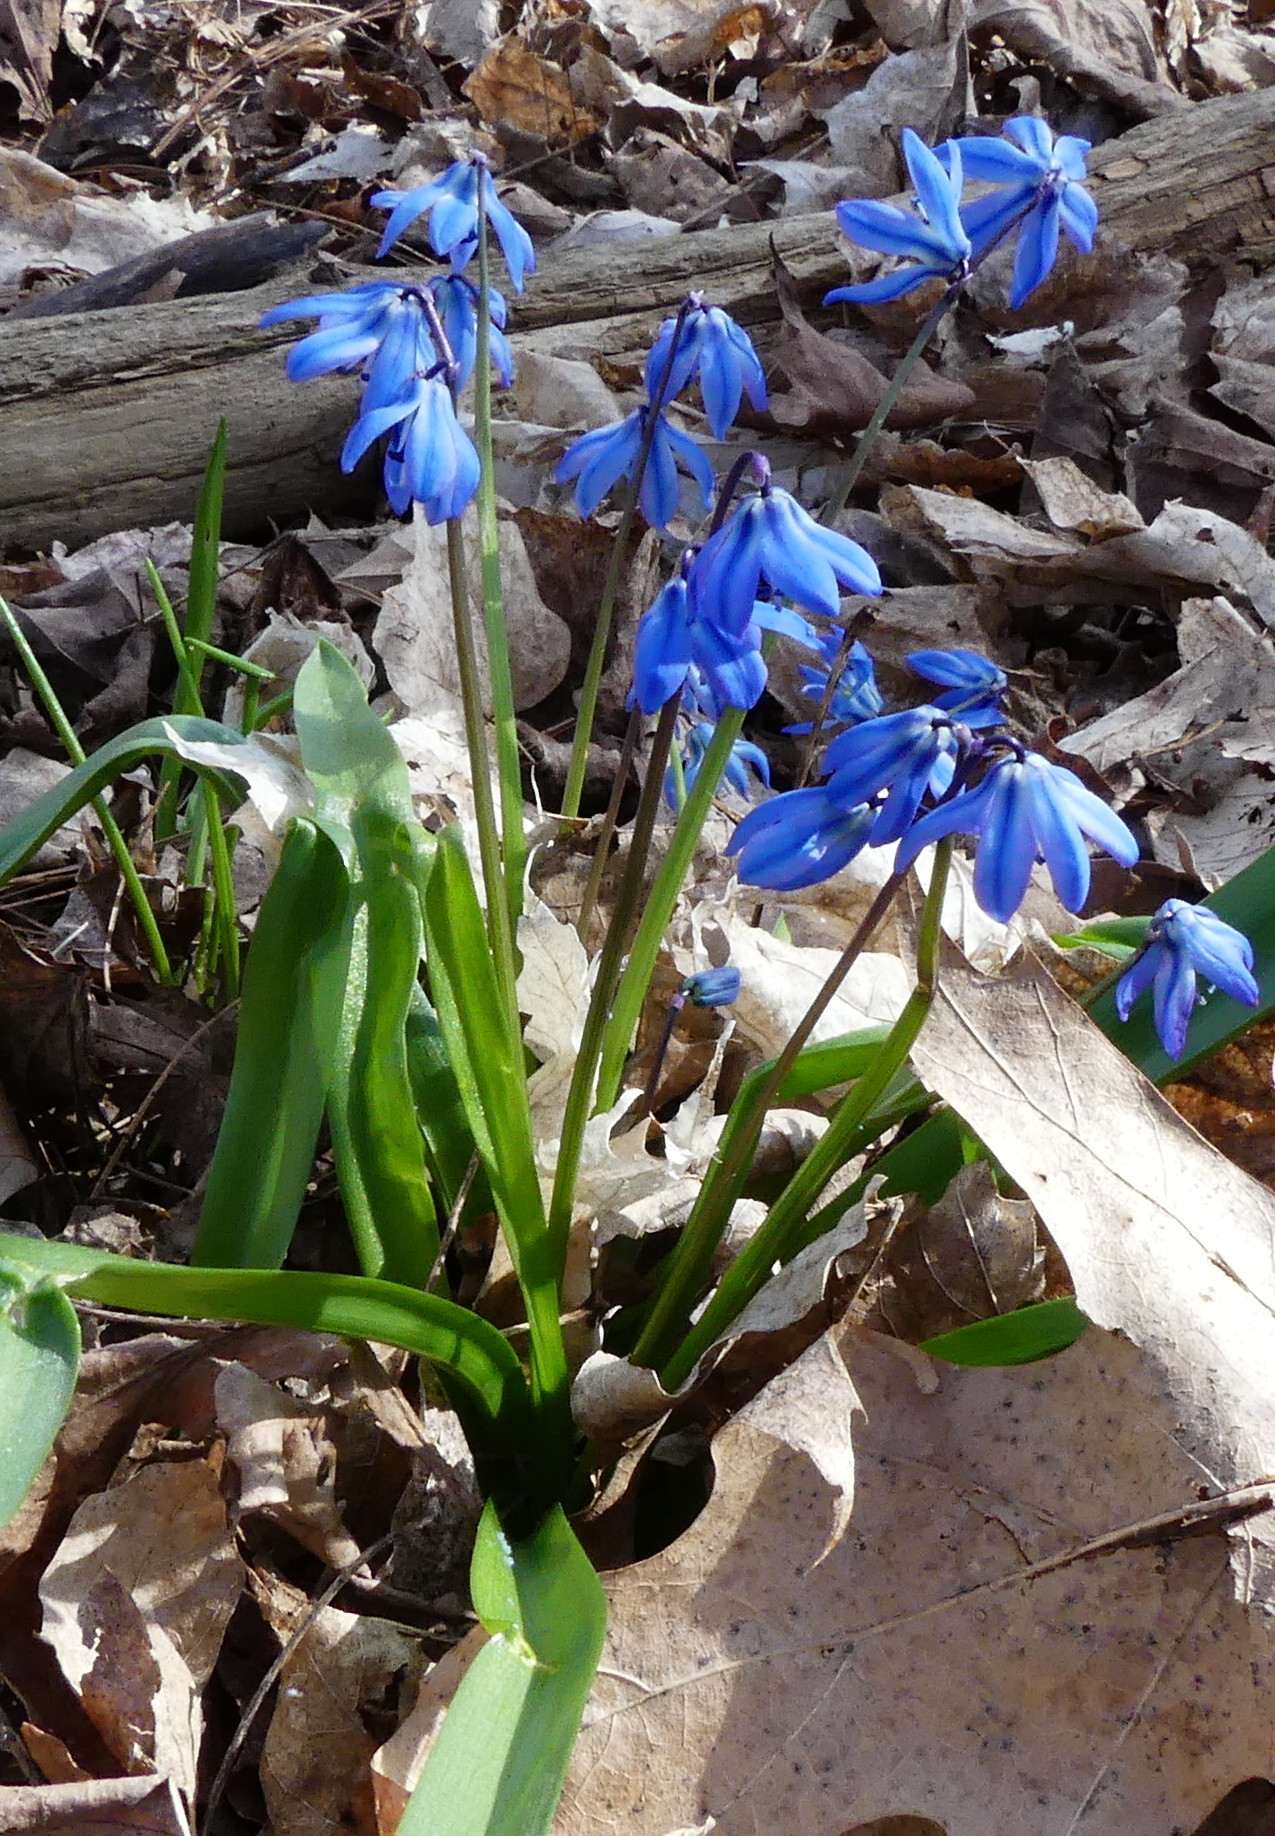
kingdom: Plantae
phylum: Tracheophyta
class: Liliopsida
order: Asparagales
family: Asparagaceae
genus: Scilla
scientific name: Scilla siberica
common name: Siberian squill
